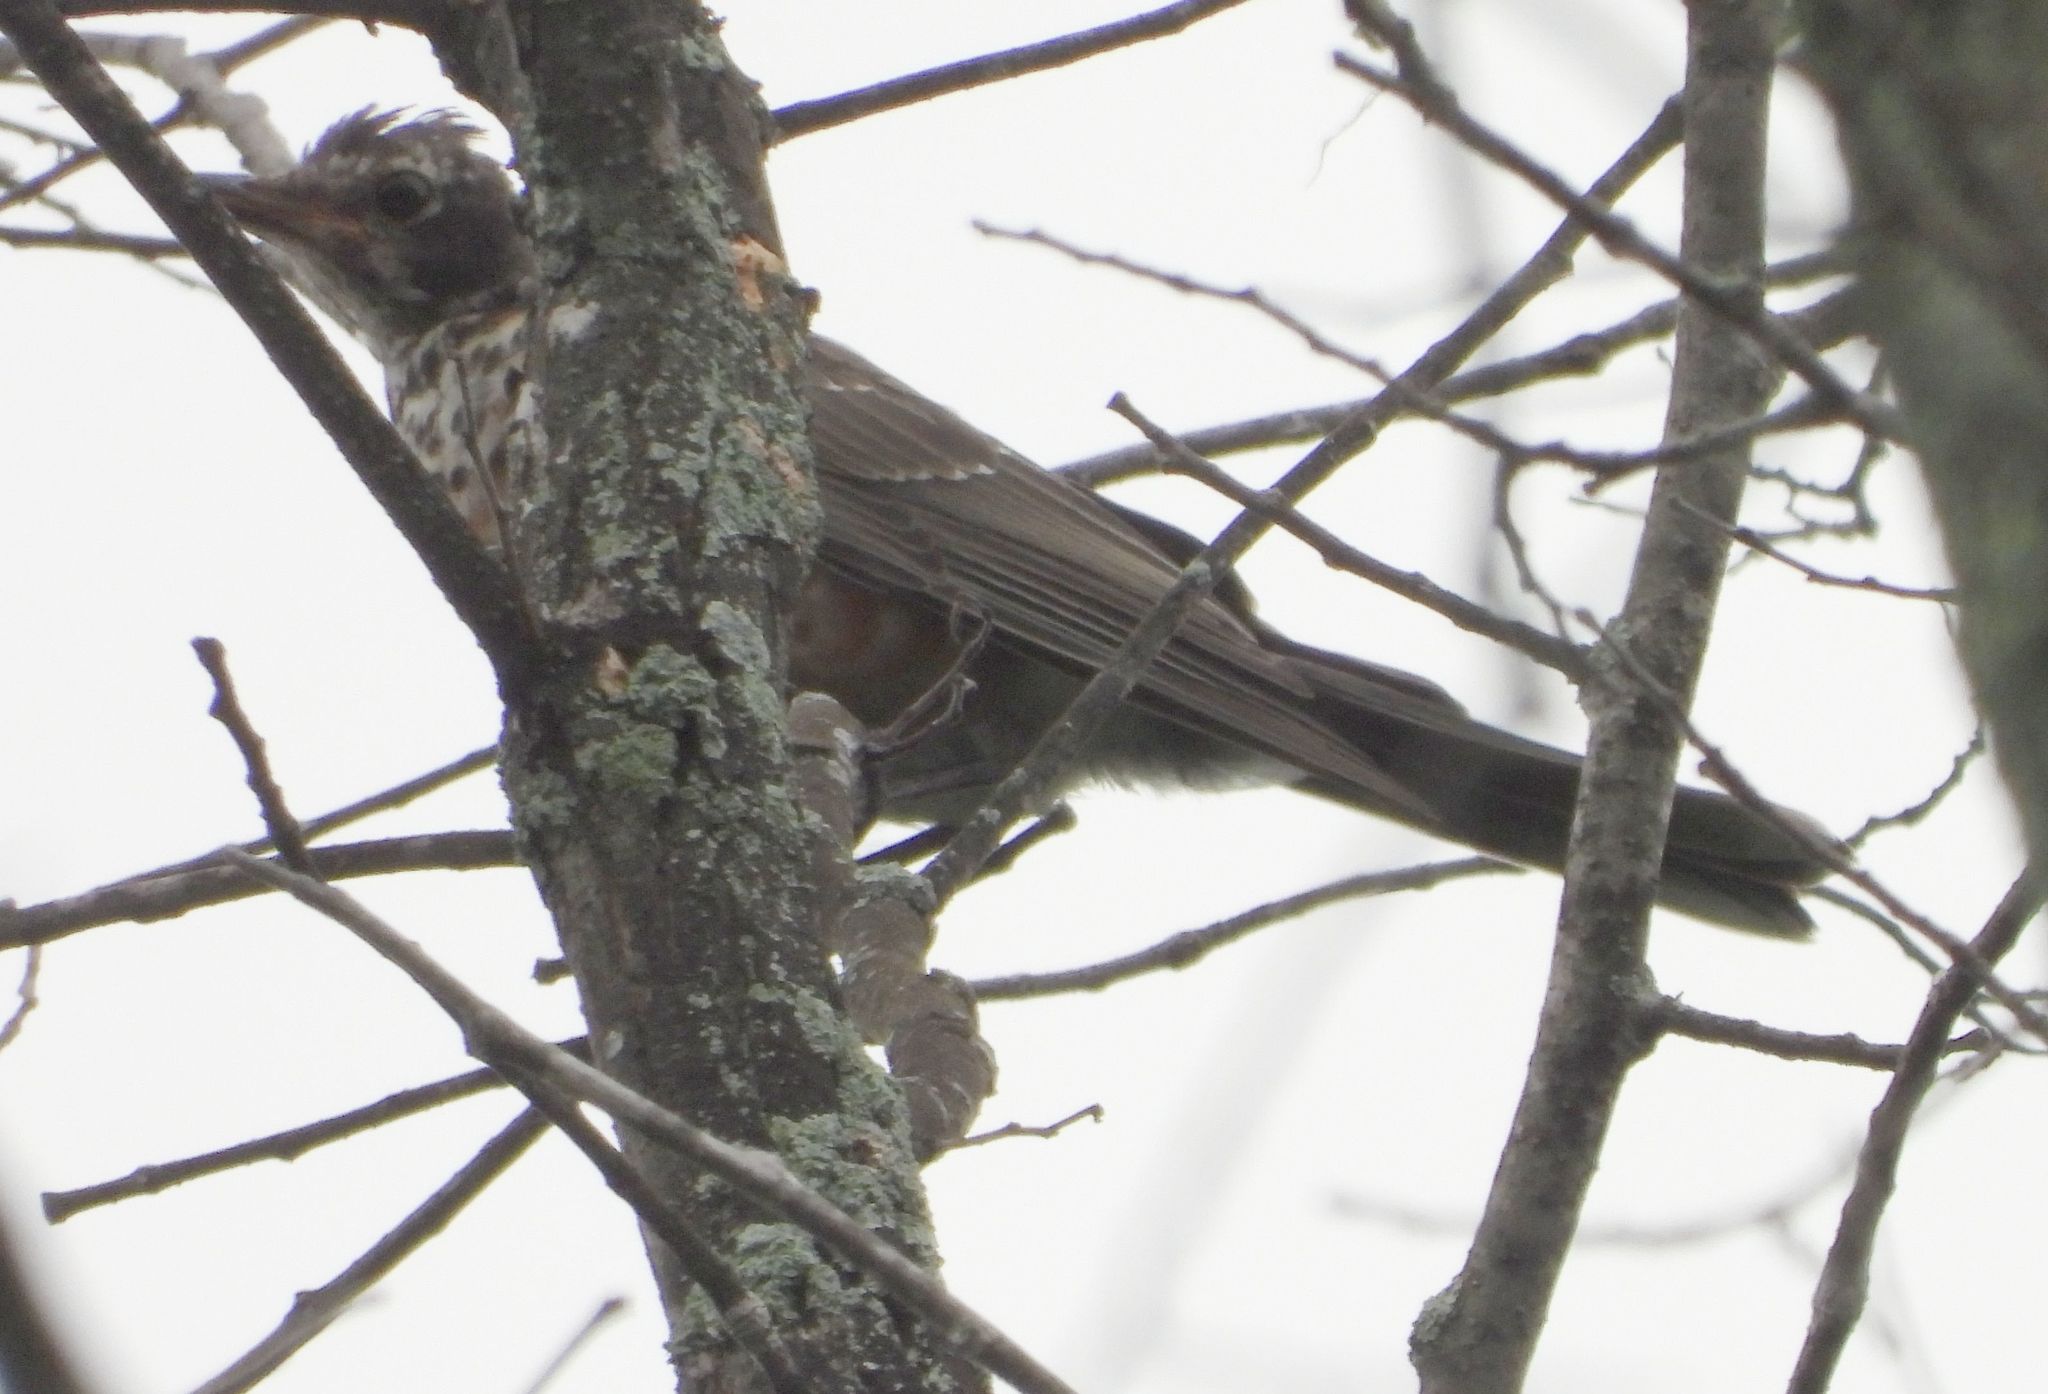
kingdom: Animalia
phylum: Chordata
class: Aves
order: Passeriformes
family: Turdidae
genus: Turdus
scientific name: Turdus migratorius
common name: American robin
